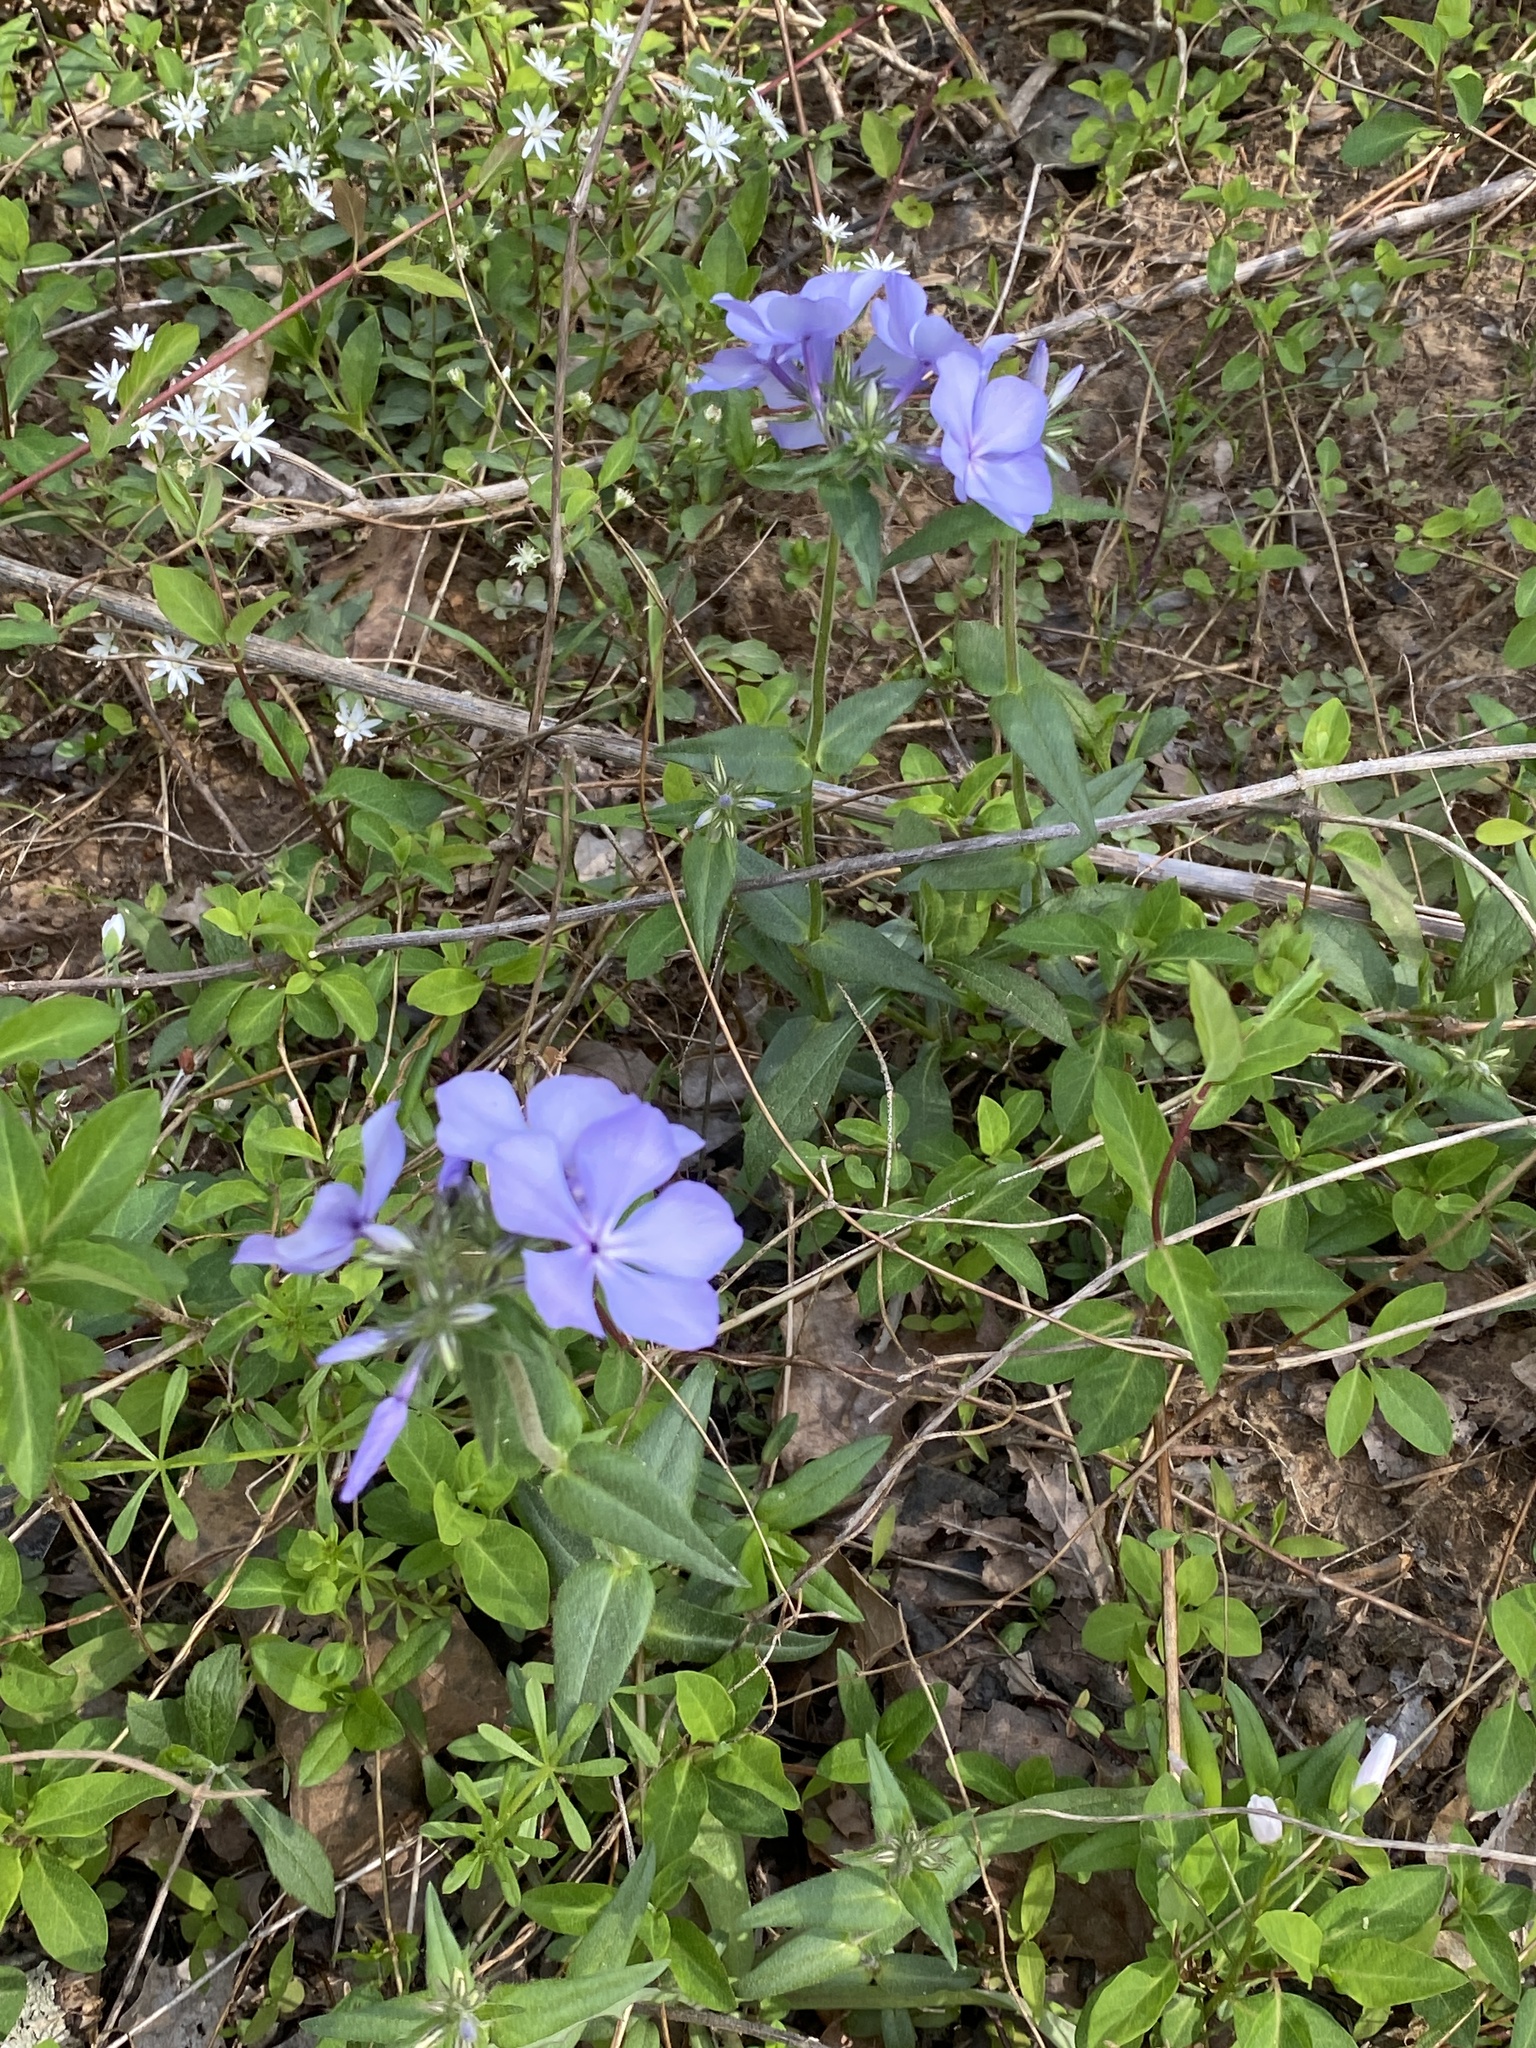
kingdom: Plantae
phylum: Tracheophyta
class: Magnoliopsida
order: Ericales
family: Polemoniaceae
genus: Phlox
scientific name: Phlox divaricata
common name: Blue phlox
